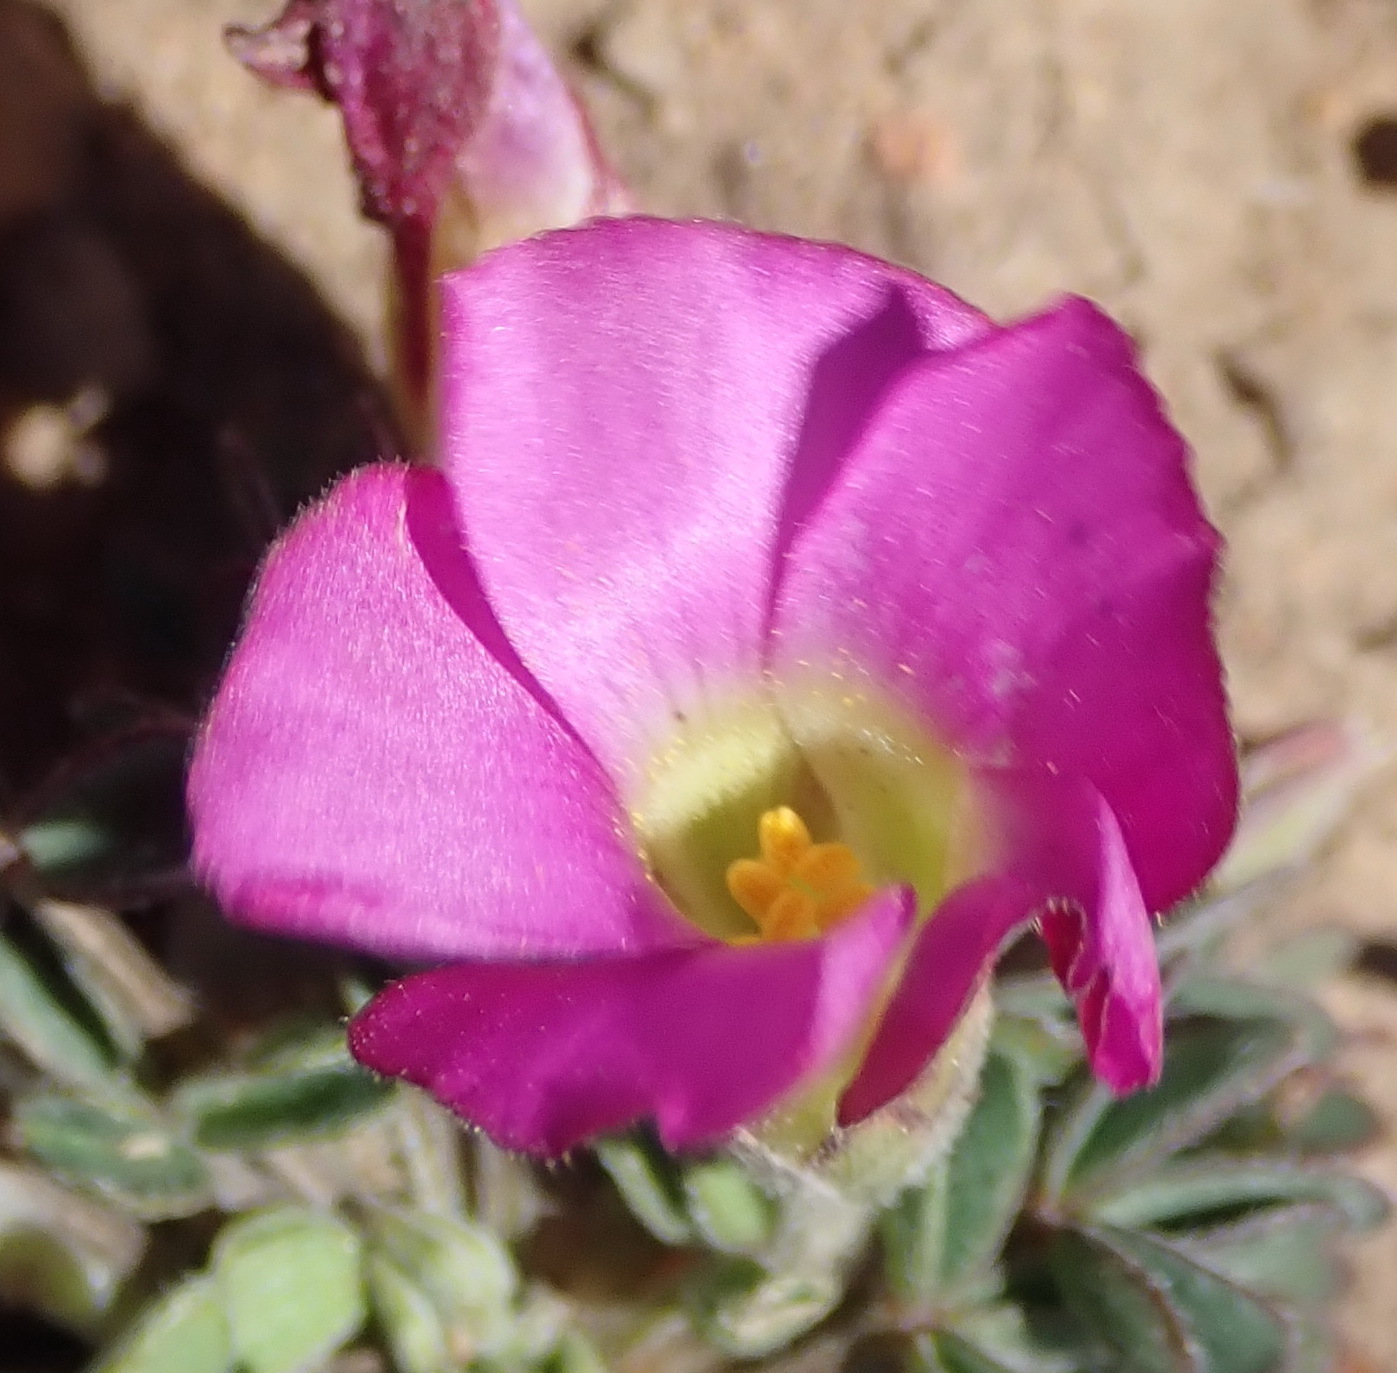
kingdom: Plantae
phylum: Tracheophyta
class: Magnoliopsida
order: Oxalidales
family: Oxalidaceae
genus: Oxalis
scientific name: Oxalis heterophylla
